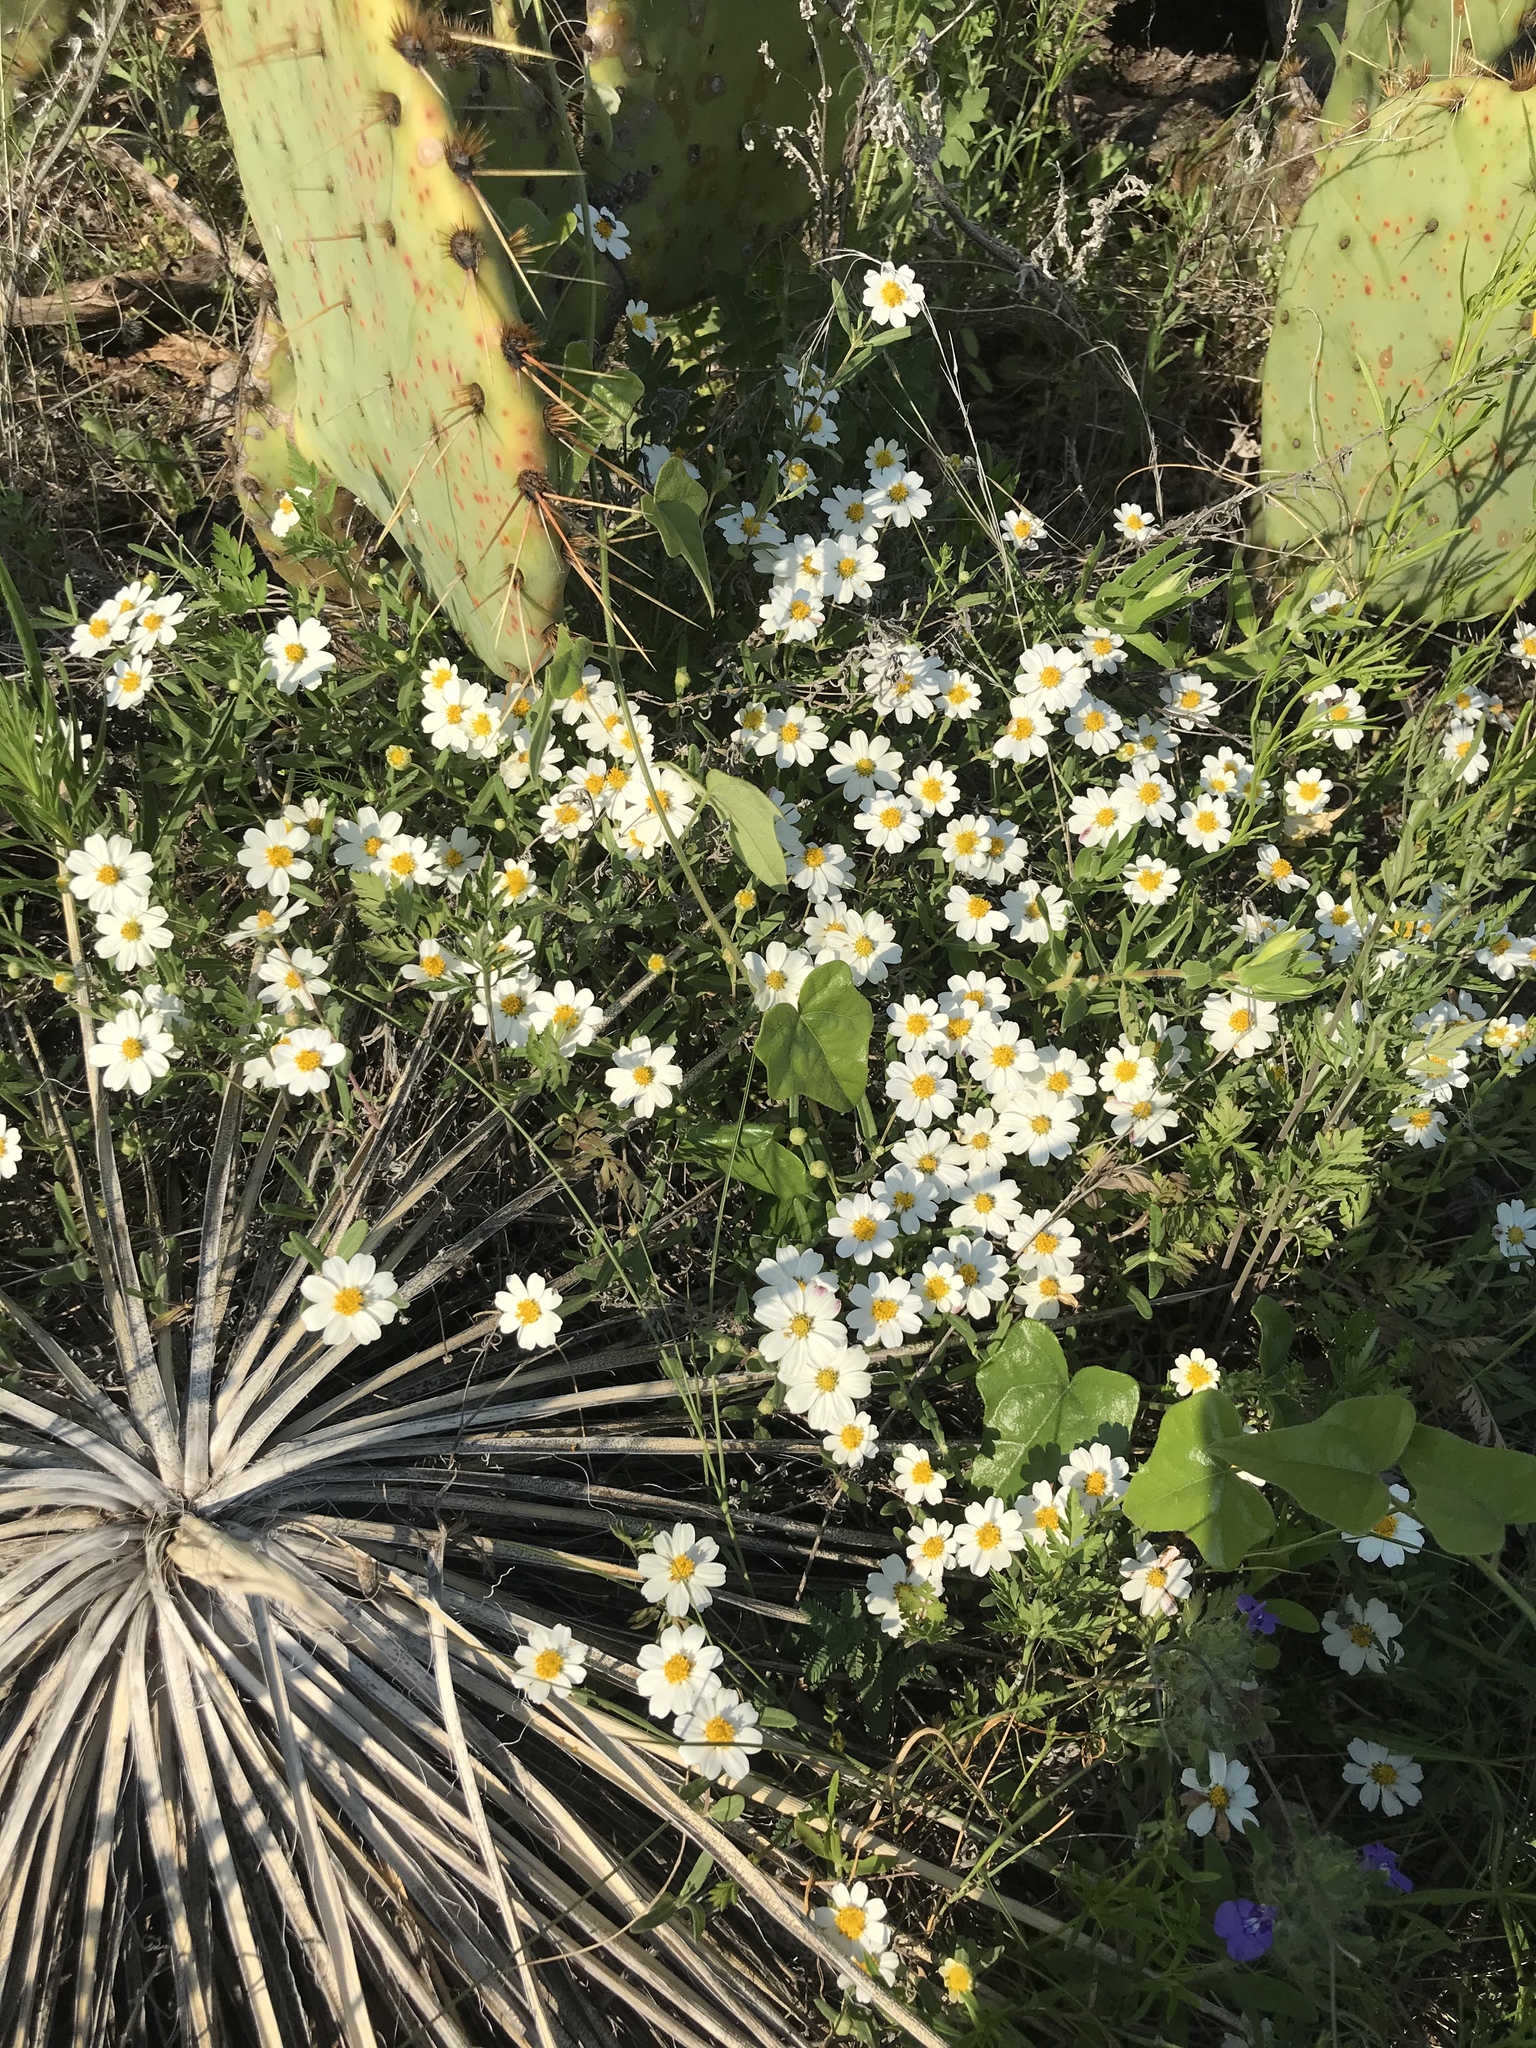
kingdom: Plantae
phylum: Tracheophyta
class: Magnoliopsida
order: Asterales
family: Asteraceae
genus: Melampodium
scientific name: Melampodium leucanthum
